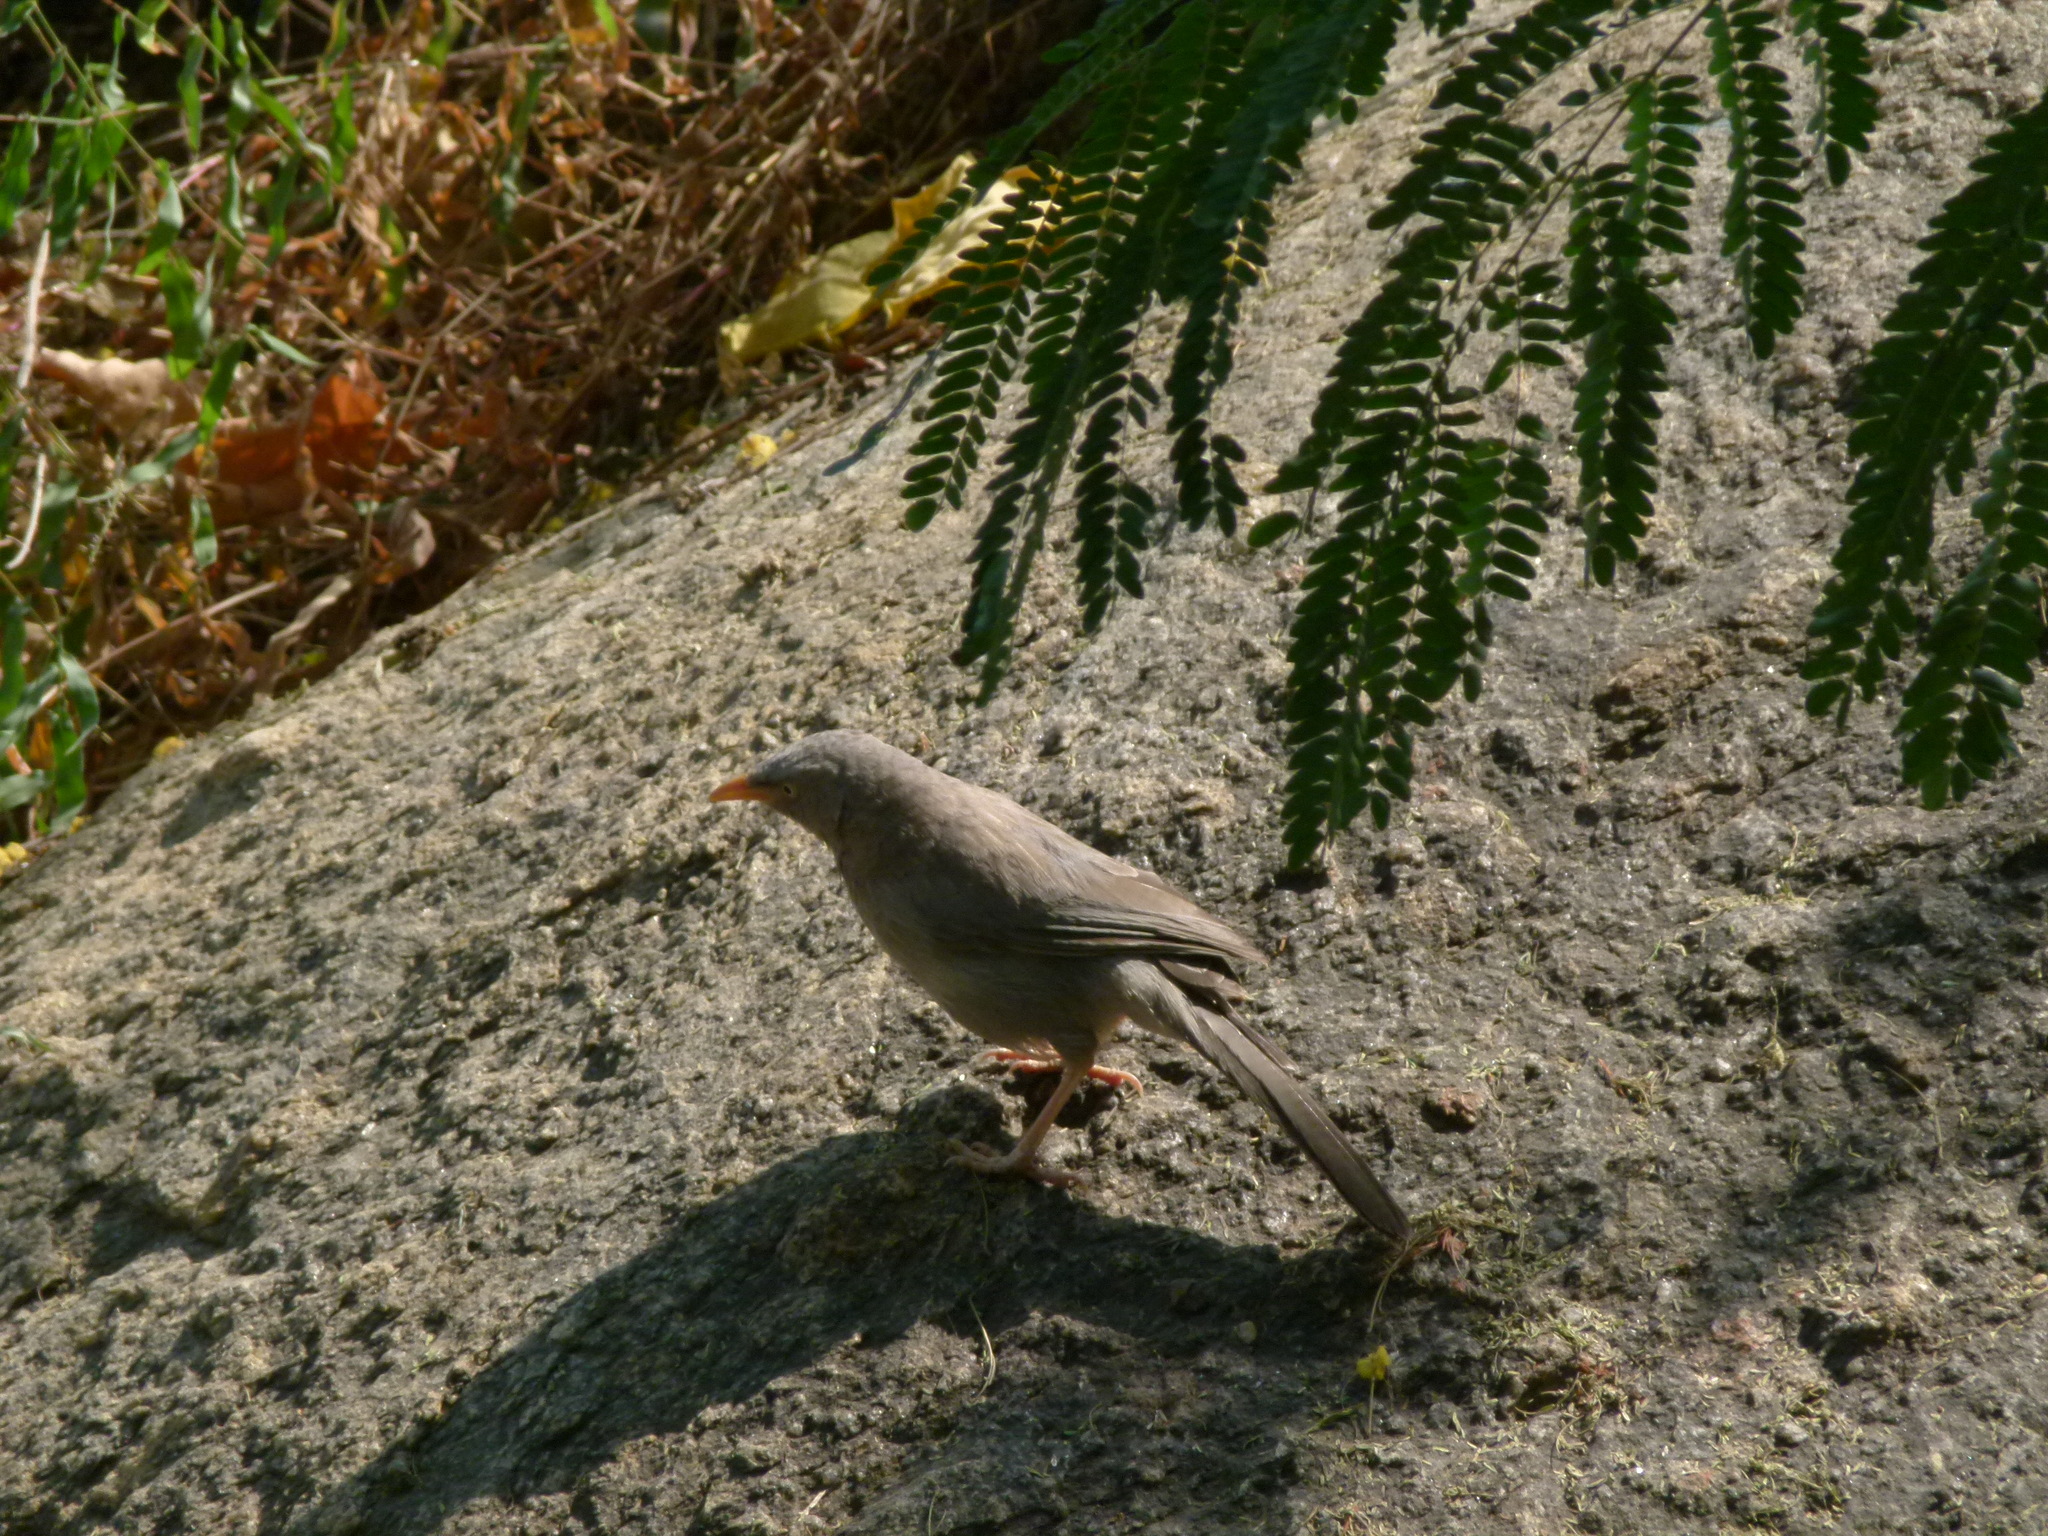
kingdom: Animalia
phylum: Chordata
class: Aves
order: Passeriformes
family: Leiothrichidae
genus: Turdoides
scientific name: Turdoides striata
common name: Jungle babbler
